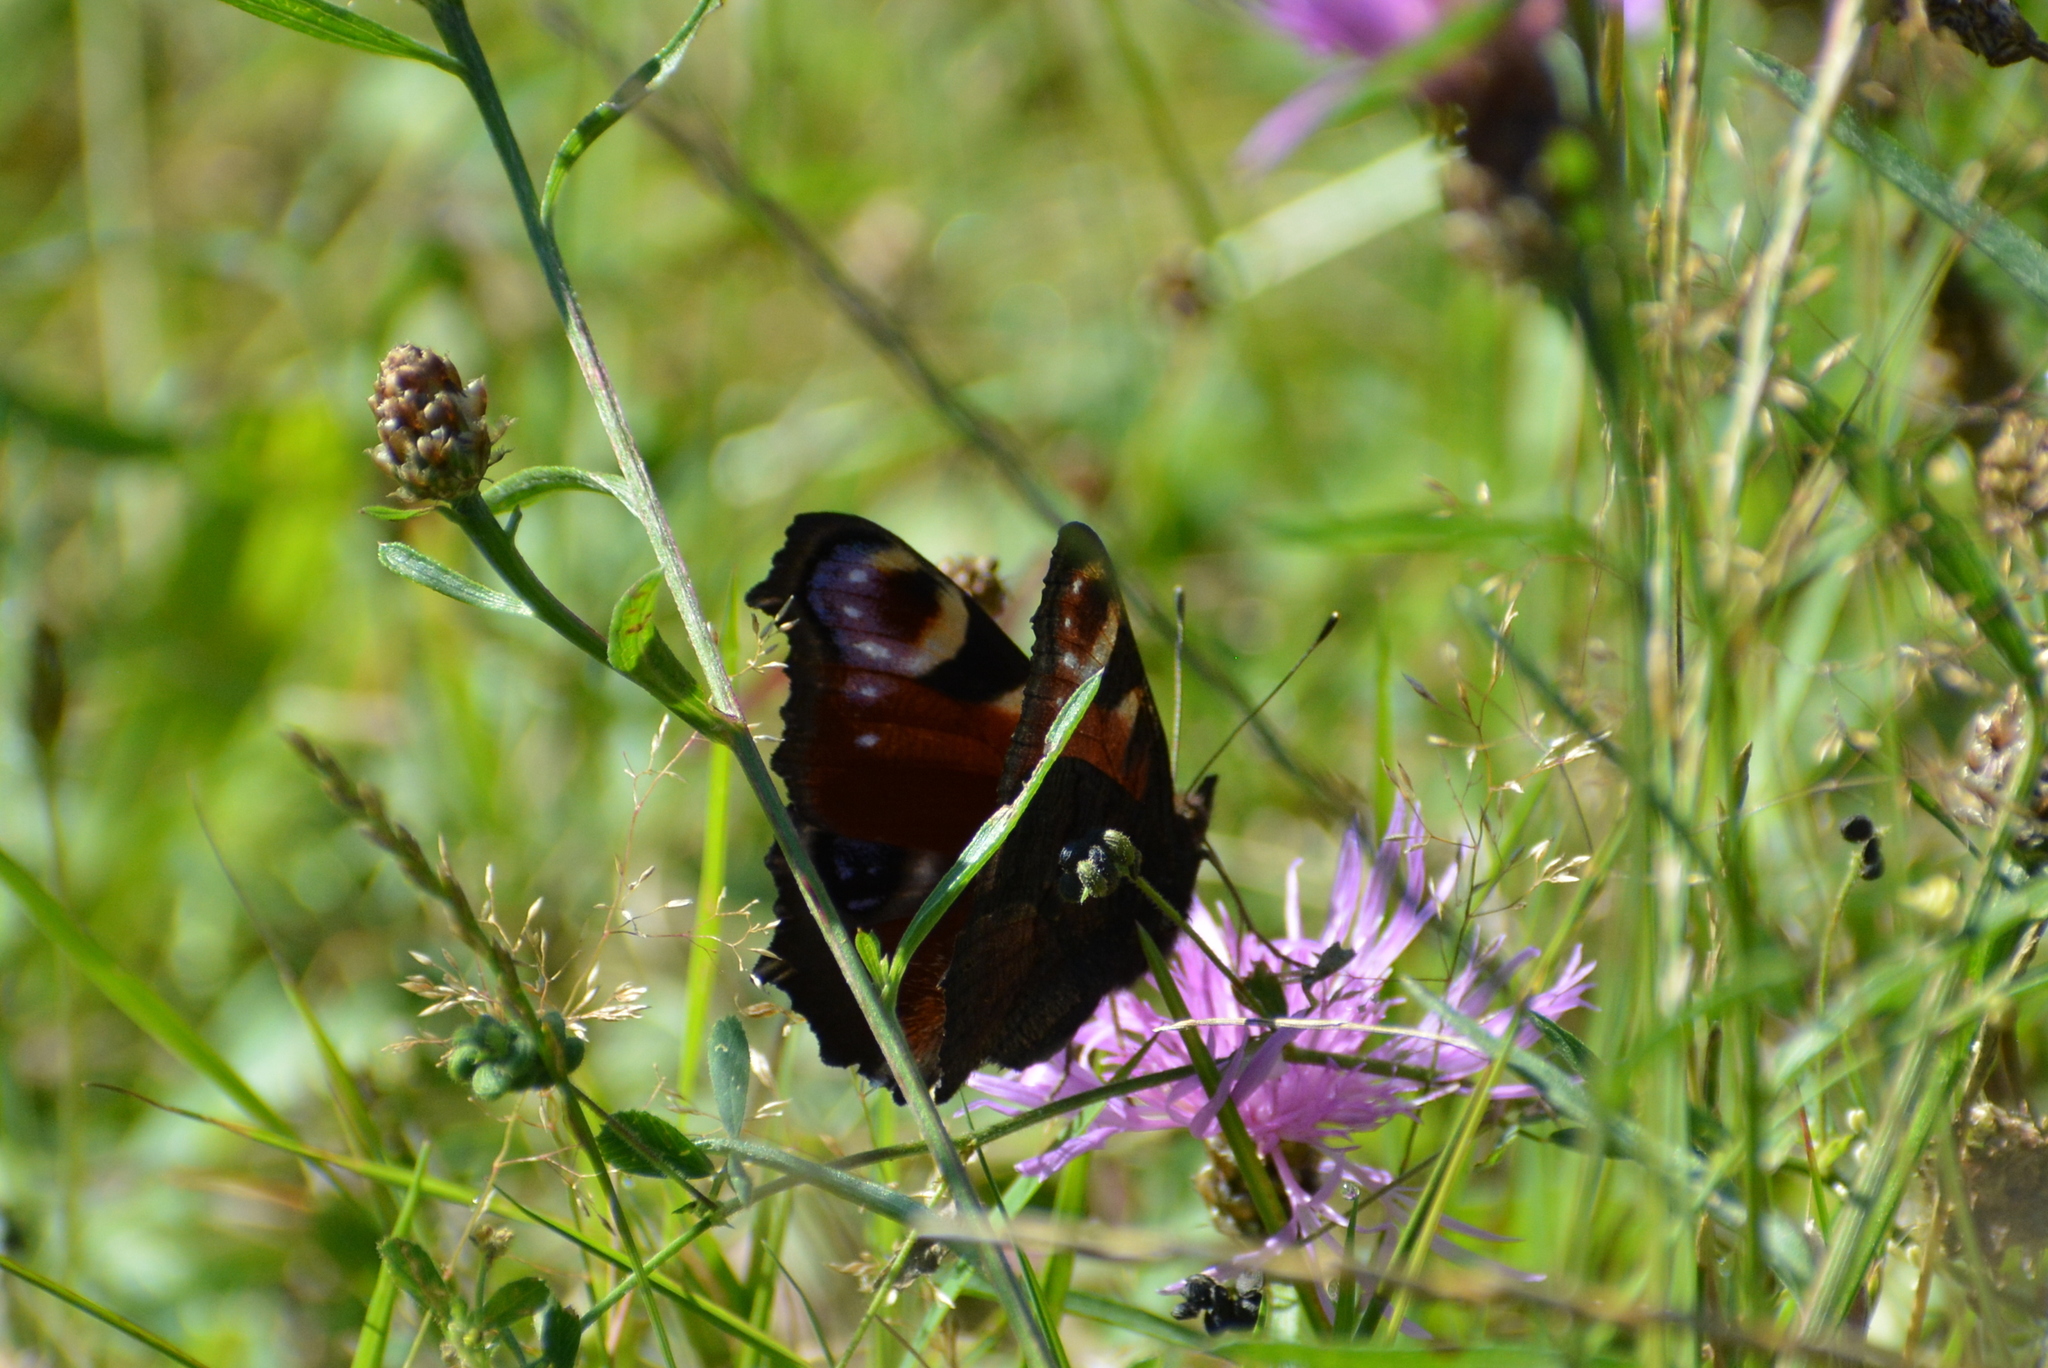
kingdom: Animalia
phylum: Arthropoda
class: Insecta
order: Lepidoptera
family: Nymphalidae
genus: Aglais
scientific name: Aglais io
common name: Peacock
